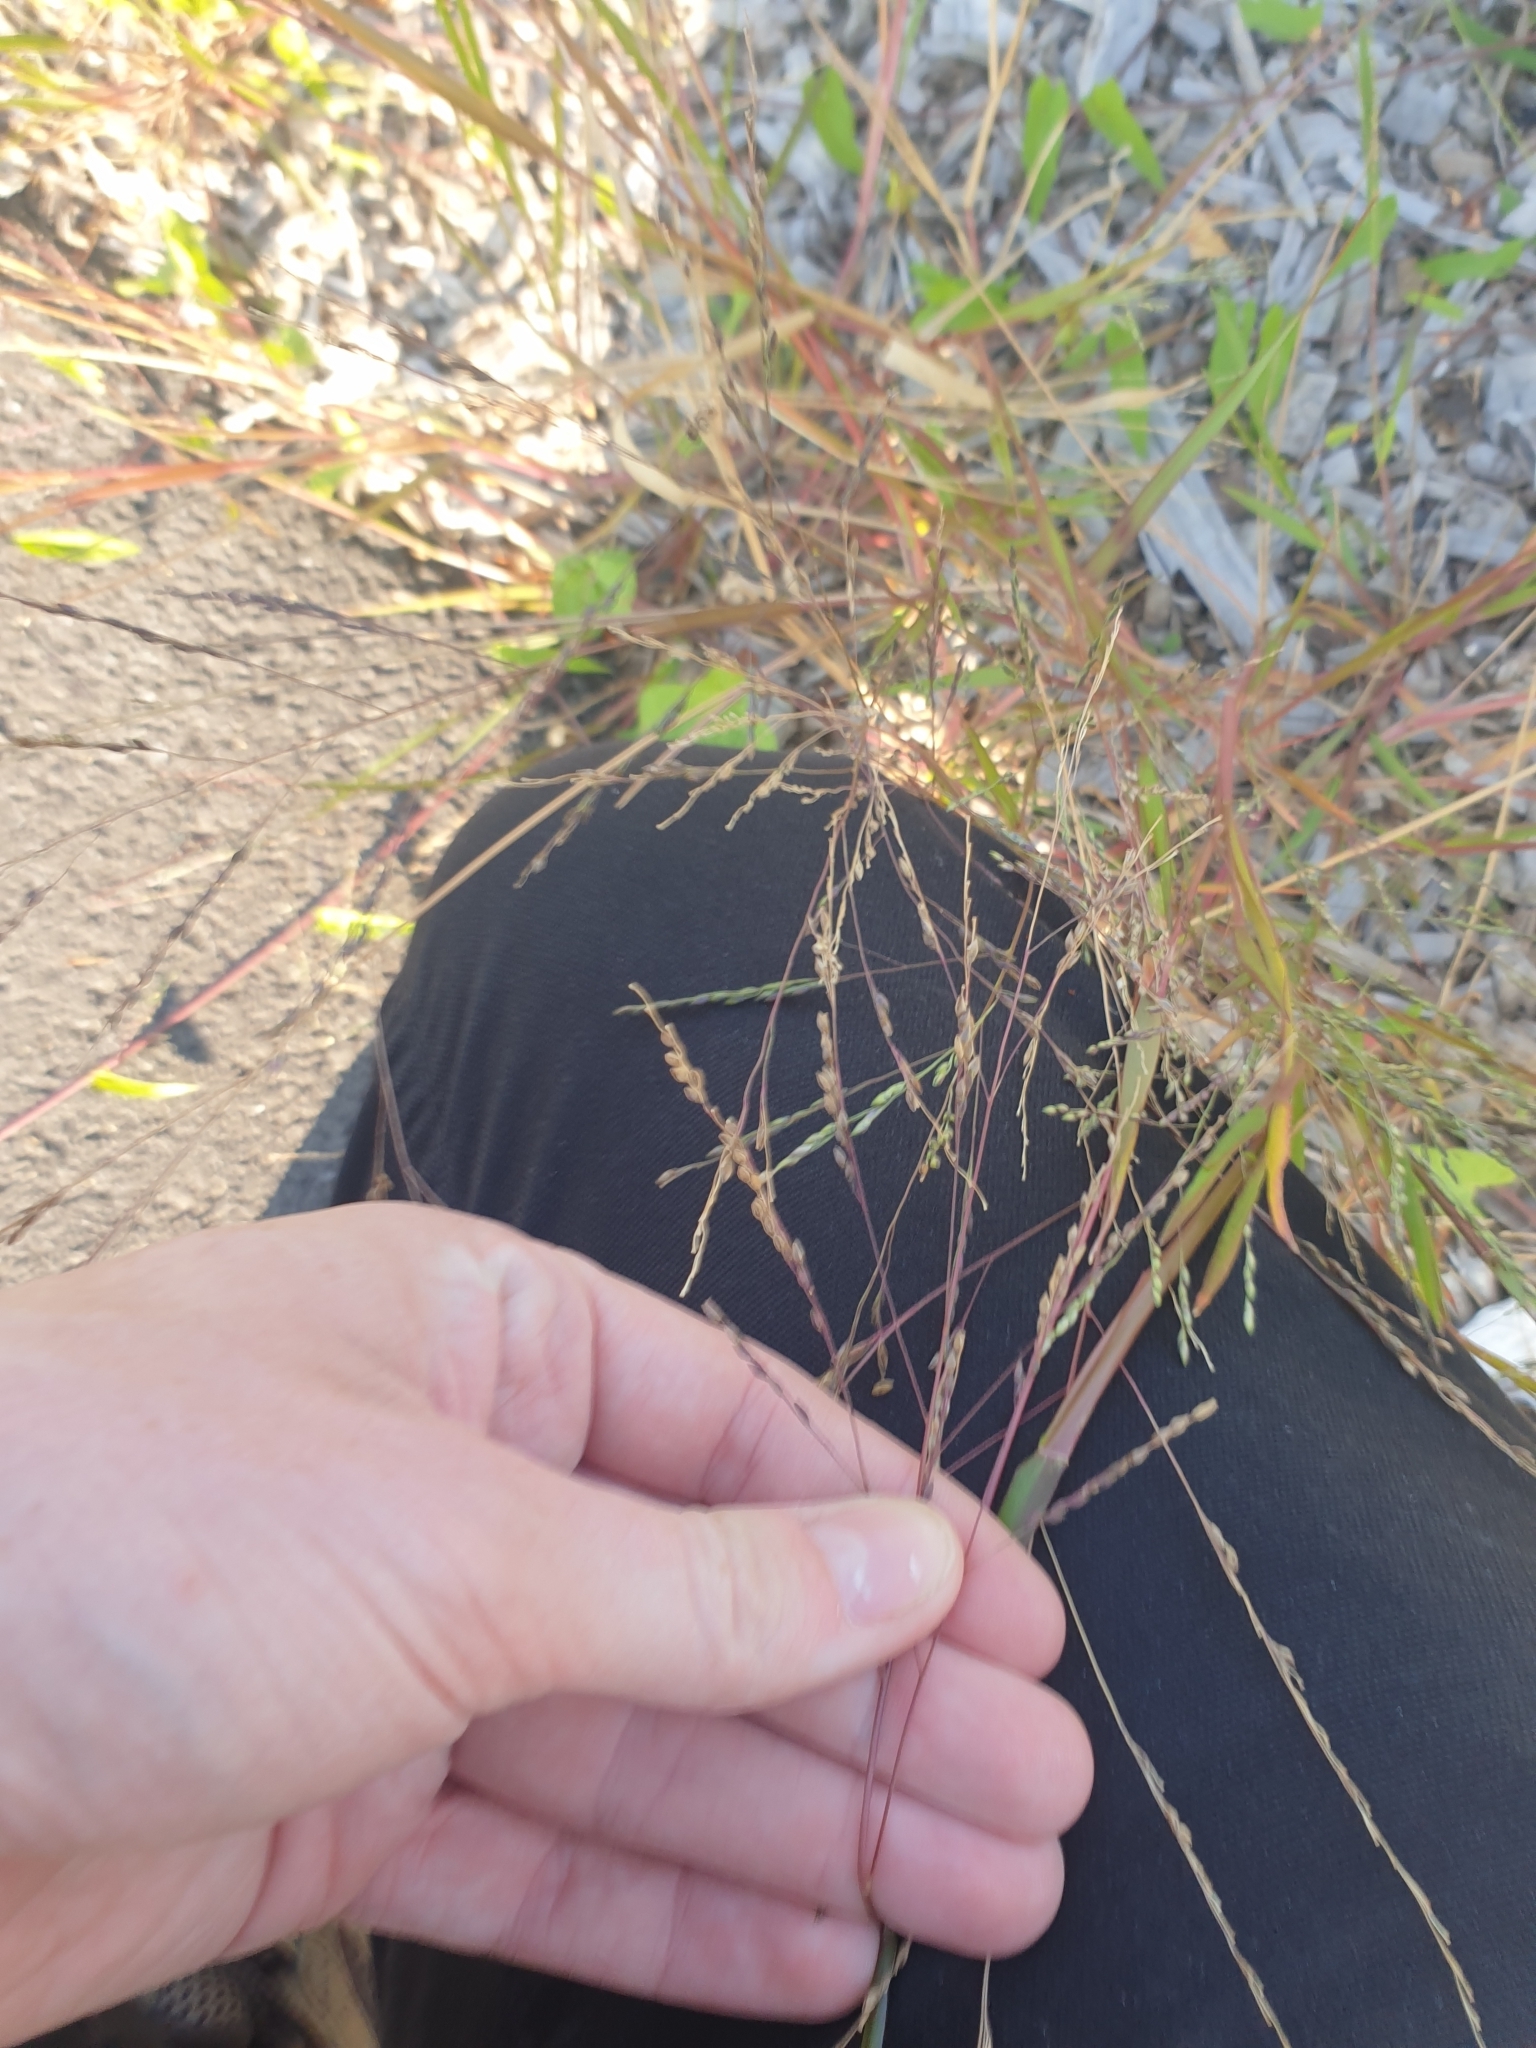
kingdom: Plantae
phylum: Tracheophyta
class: Liliopsida
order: Poales
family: Poaceae
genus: Panicum
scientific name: Panicum dichotomiflorum
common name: Autumn millet
